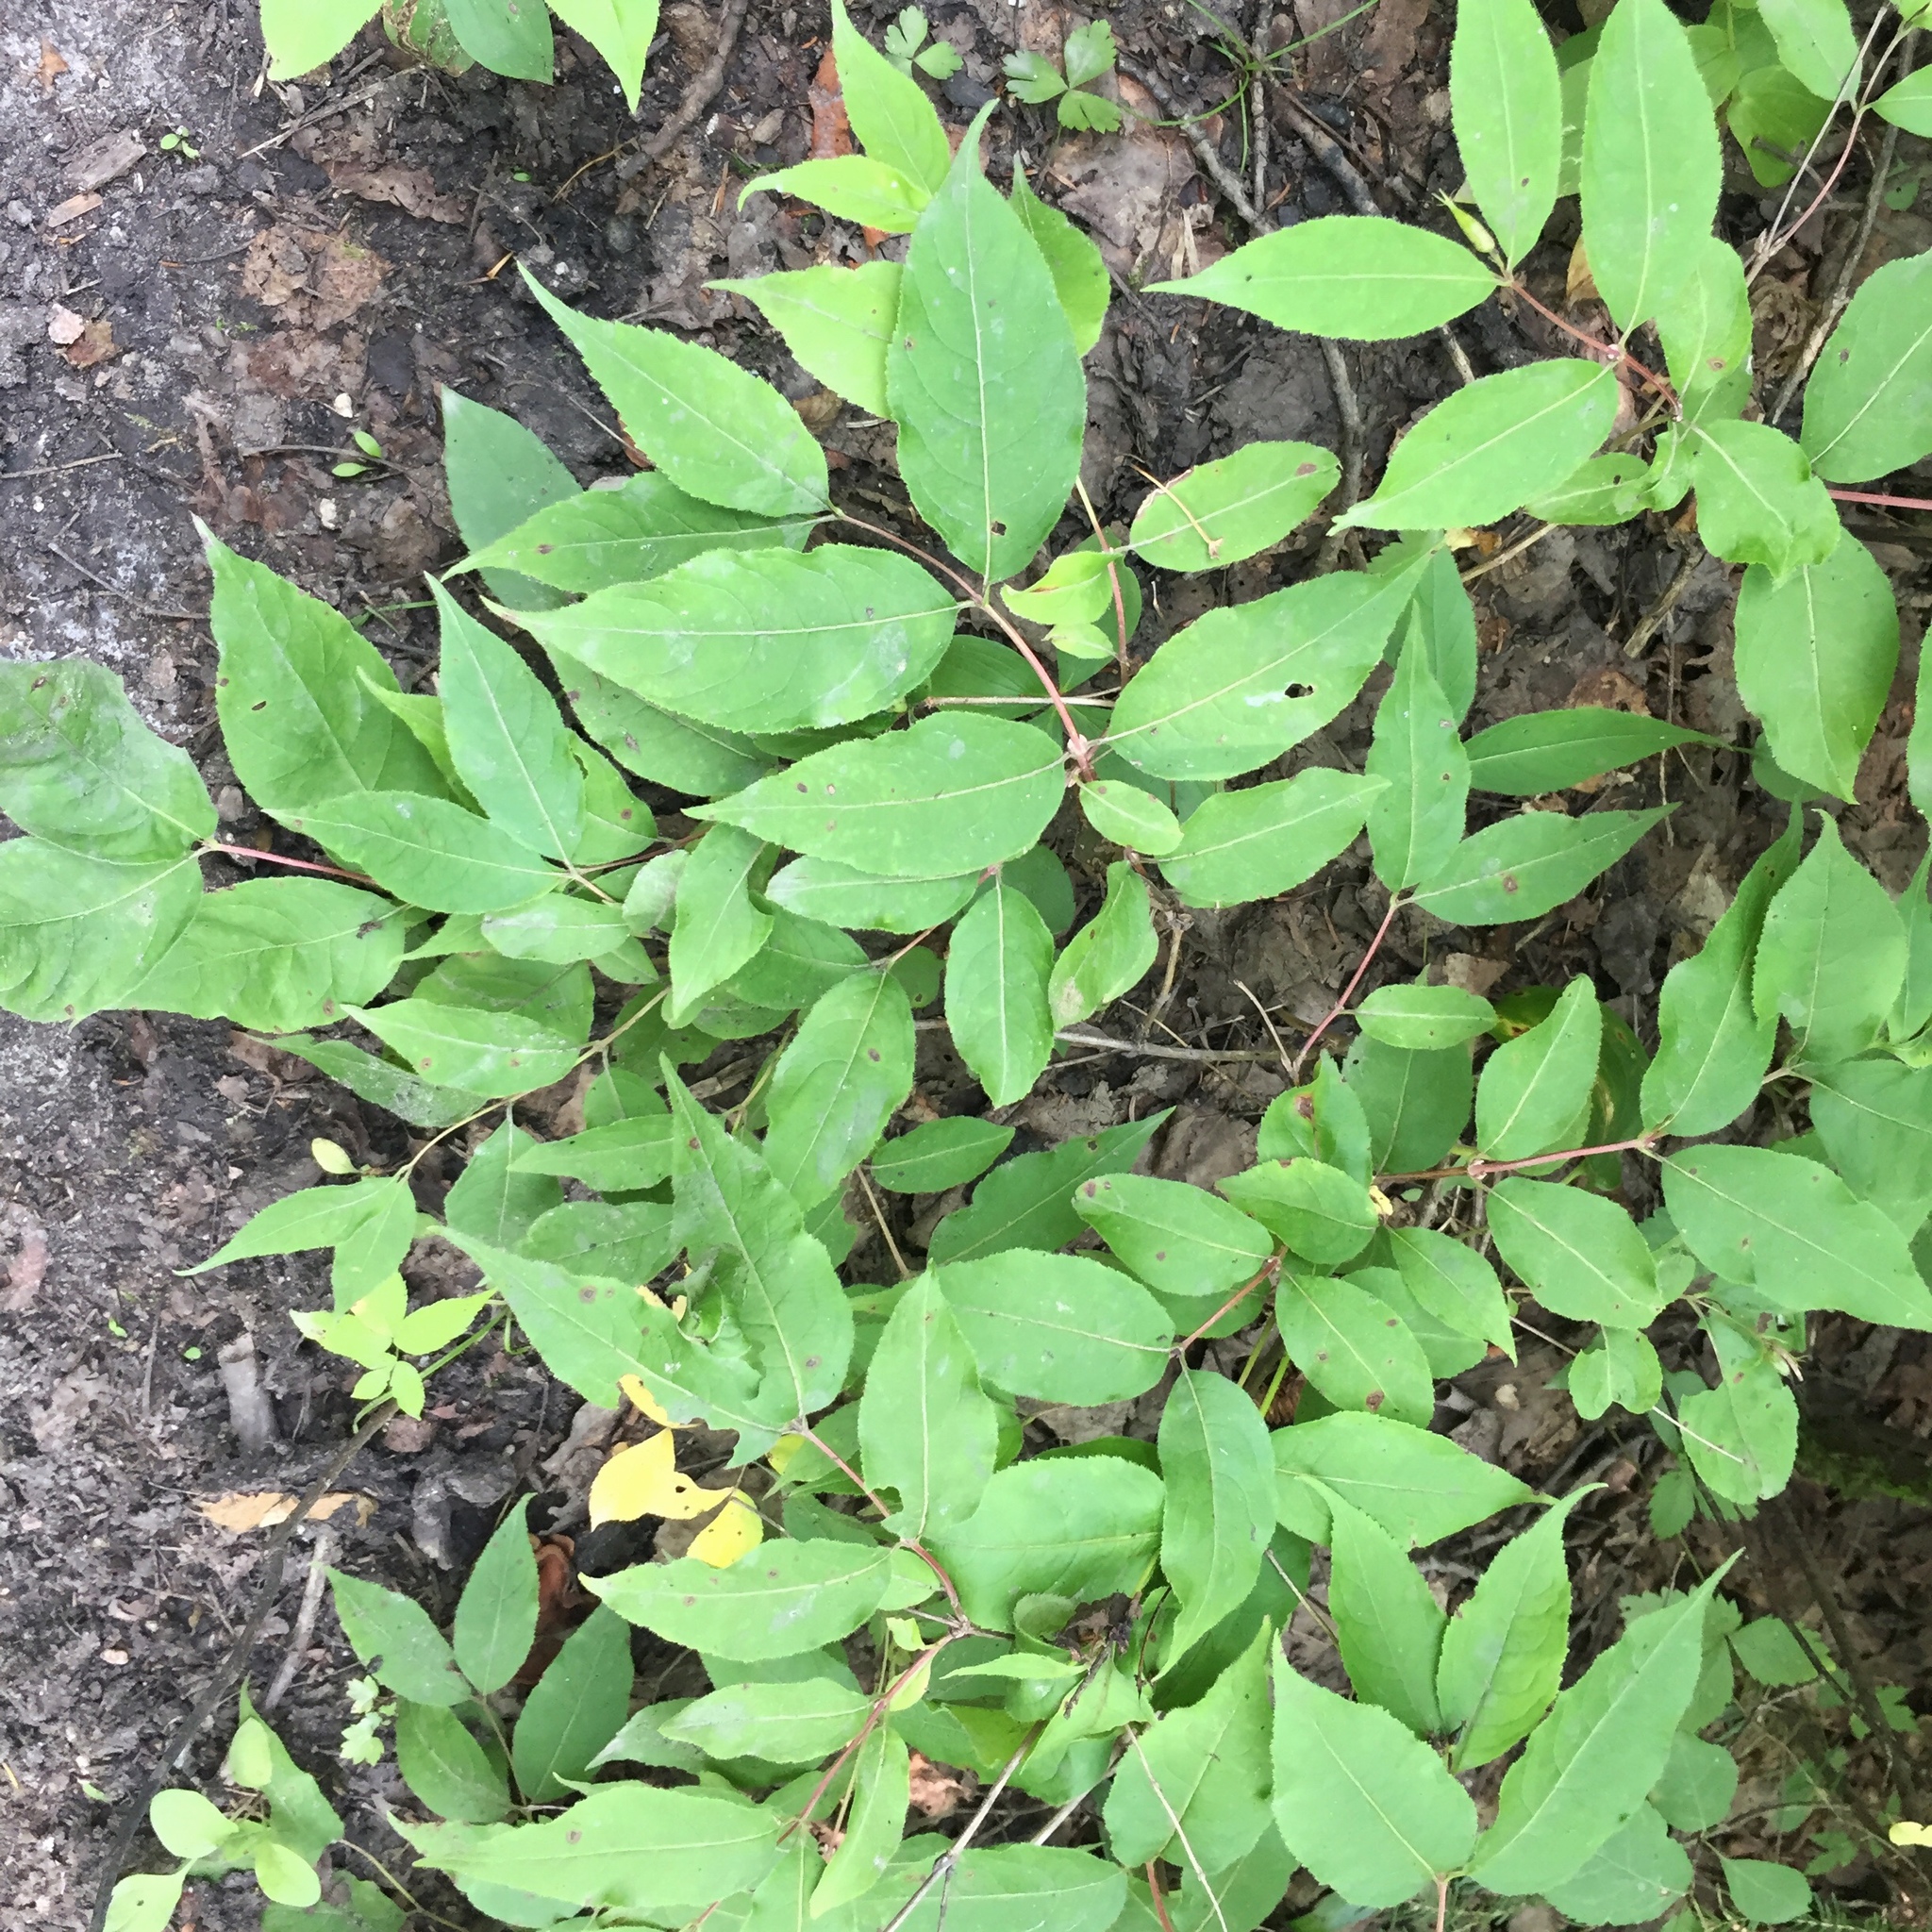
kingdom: Plantae
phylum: Tracheophyta
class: Magnoliopsida
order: Dipsacales
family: Caprifoliaceae
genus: Diervilla
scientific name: Diervilla lonicera
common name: Bush-honeysuckle
